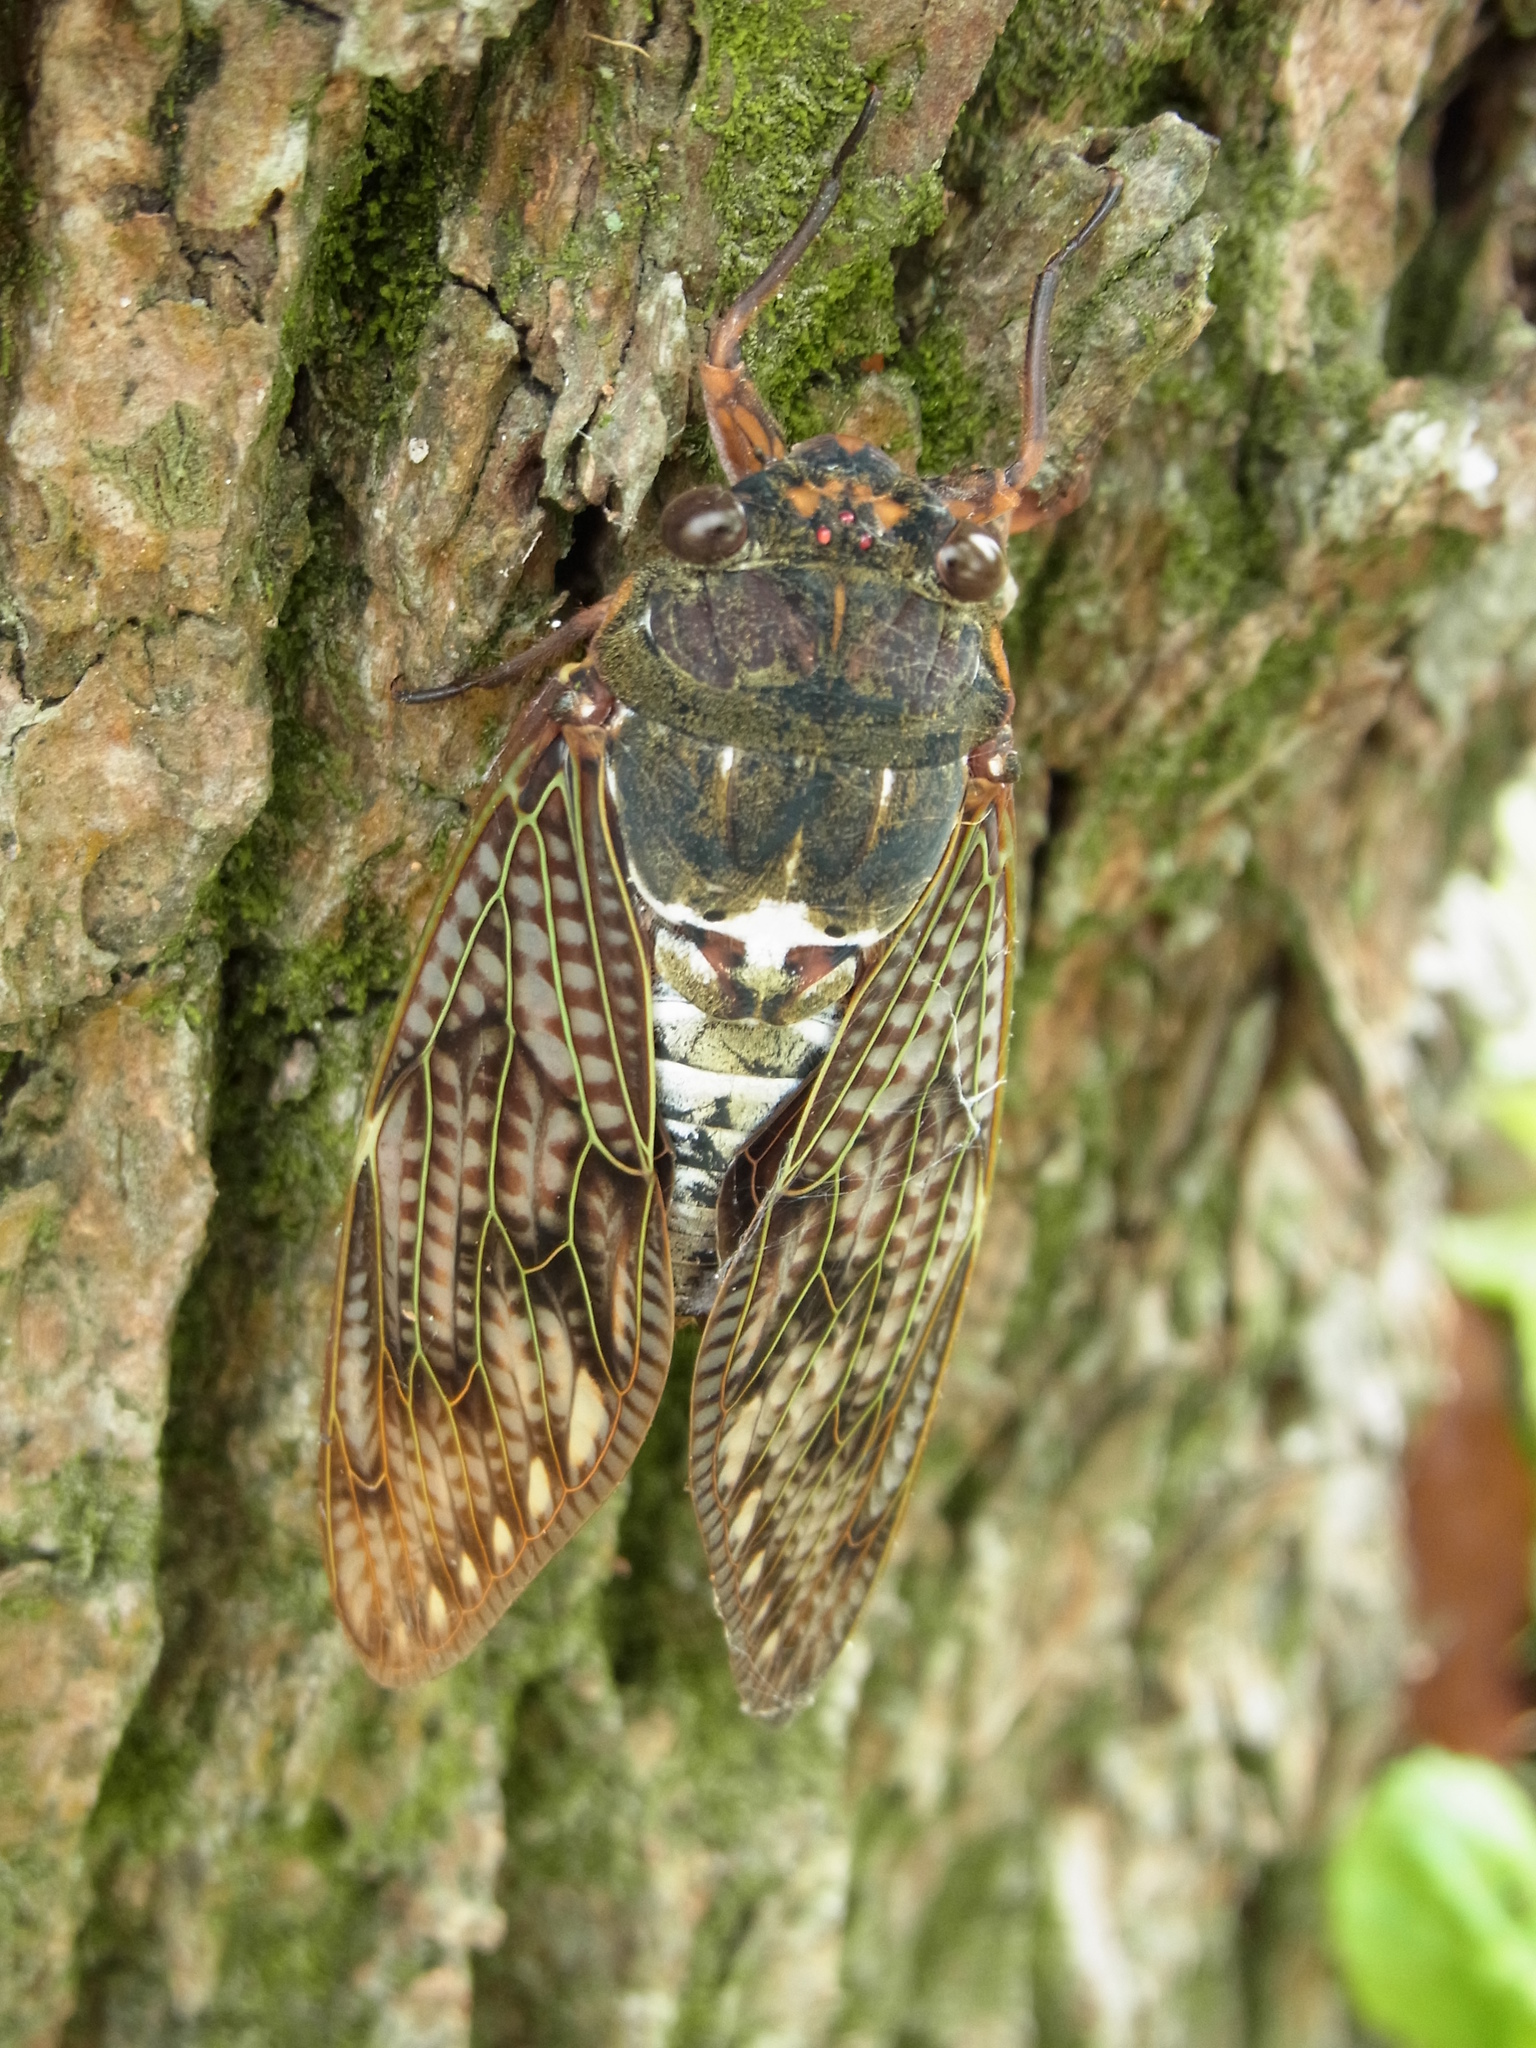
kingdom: Animalia
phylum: Arthropoda
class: Insecta
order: Hemiptera
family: Cicadidae
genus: Graptopsaltria
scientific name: Graptopsaltria nigrofuscata
